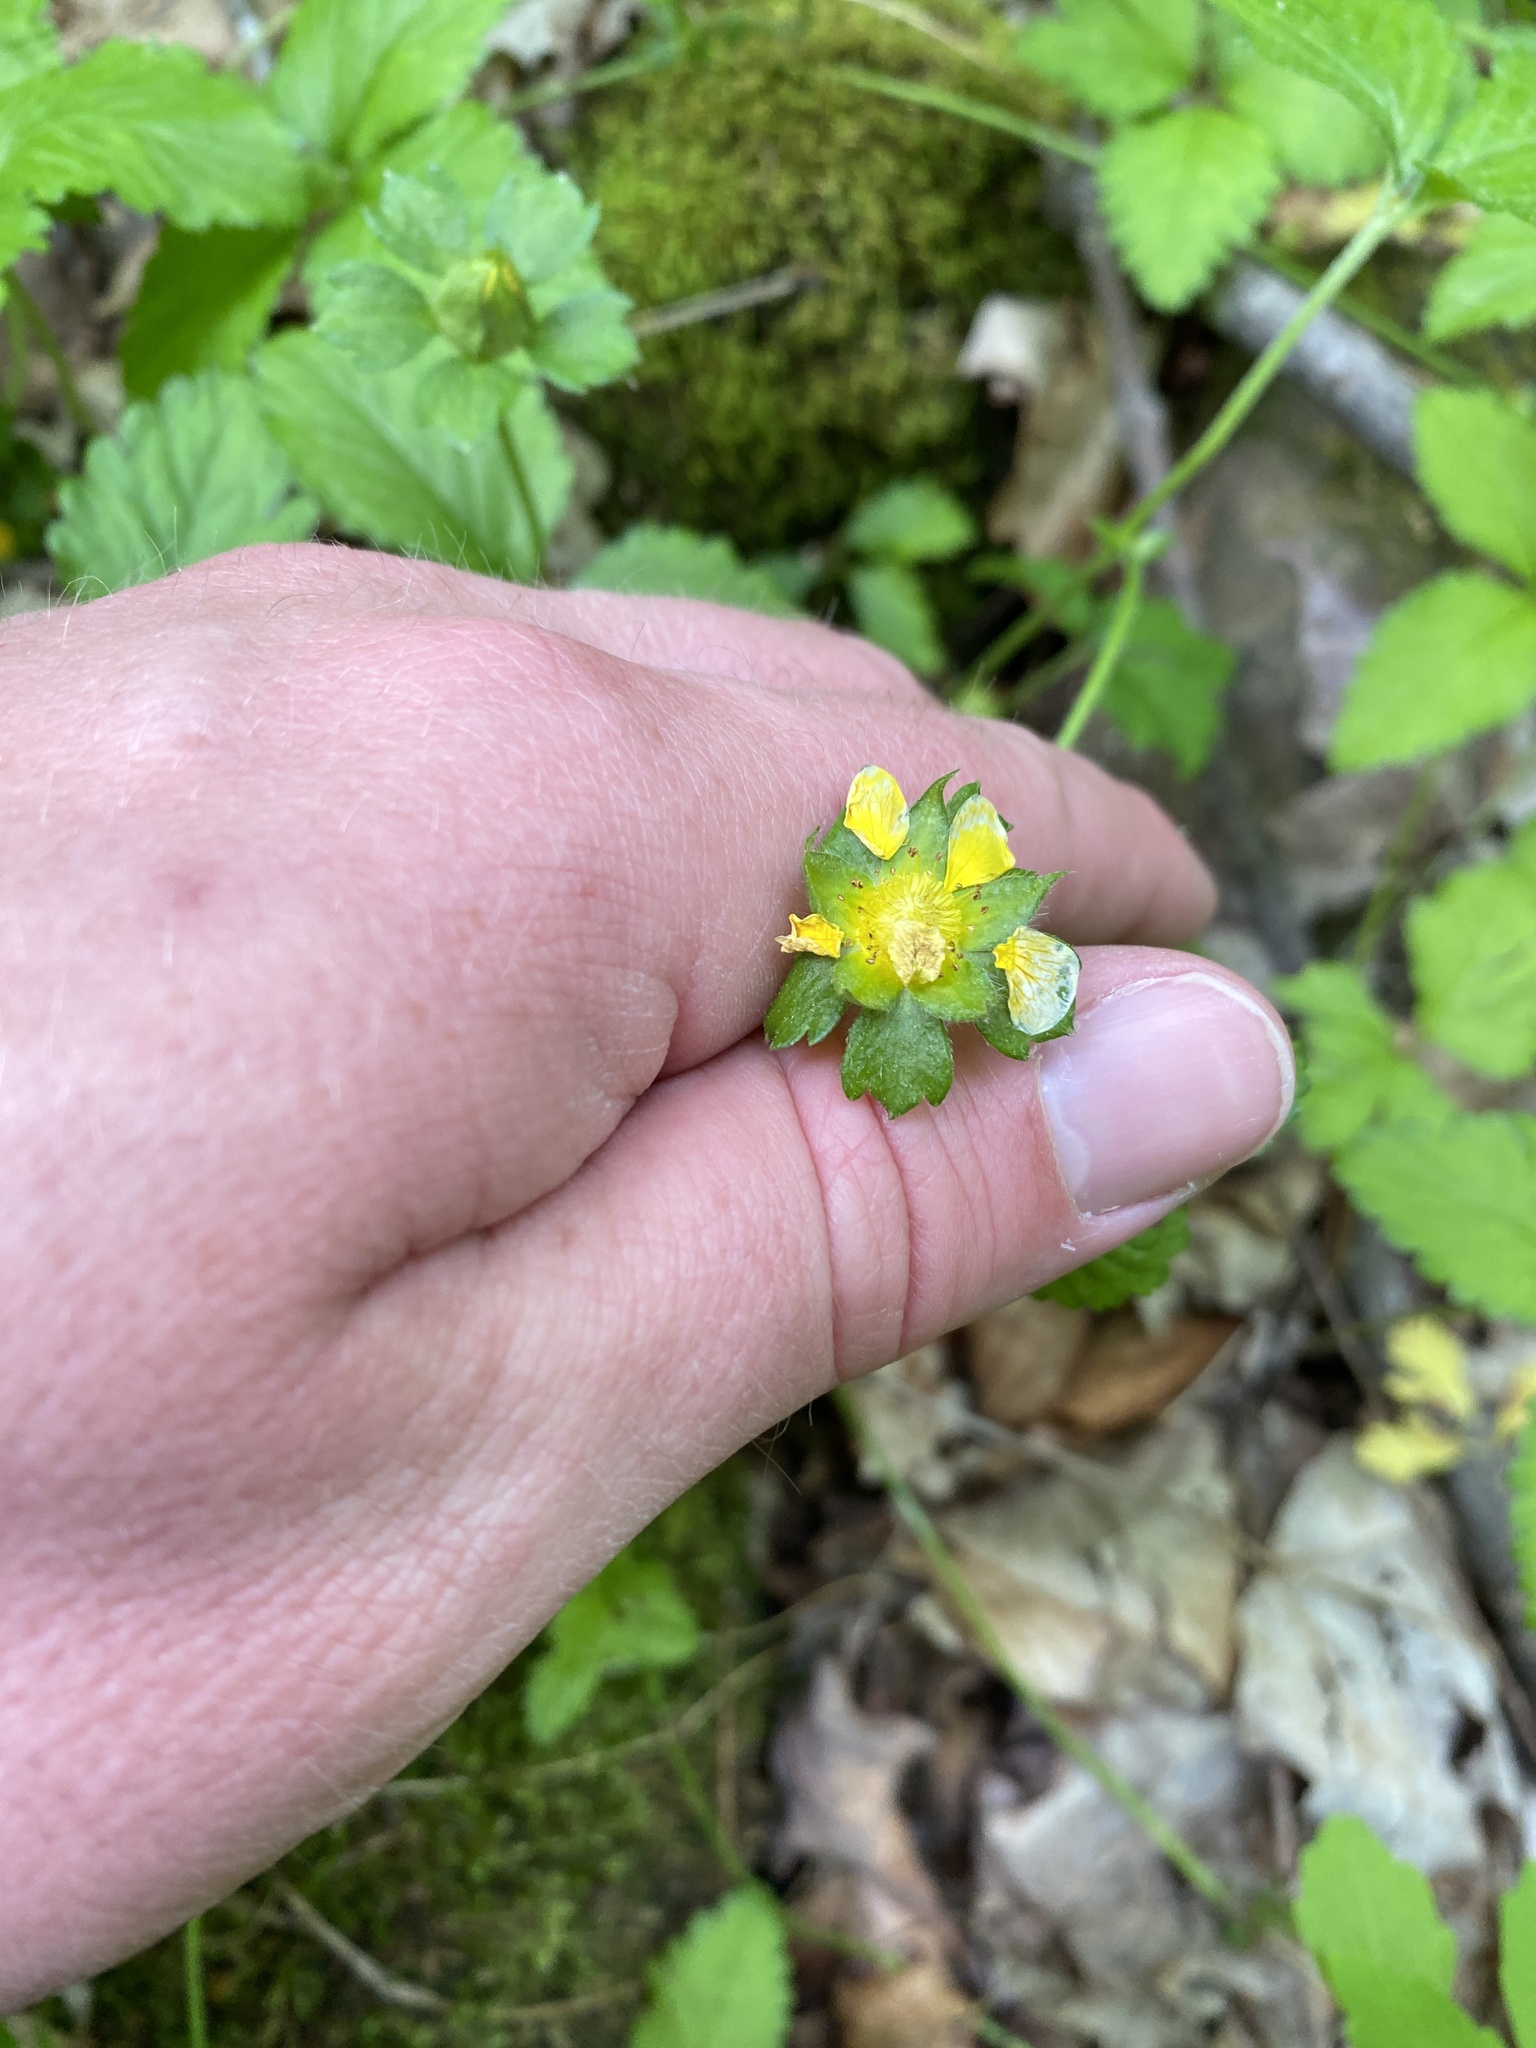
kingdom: Plantae
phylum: Tracheophyta
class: Magnoliopsida
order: Rosales
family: Rosaceae
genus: Potentilla
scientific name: Potentilla indica
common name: Yellow-flowered strawberry
